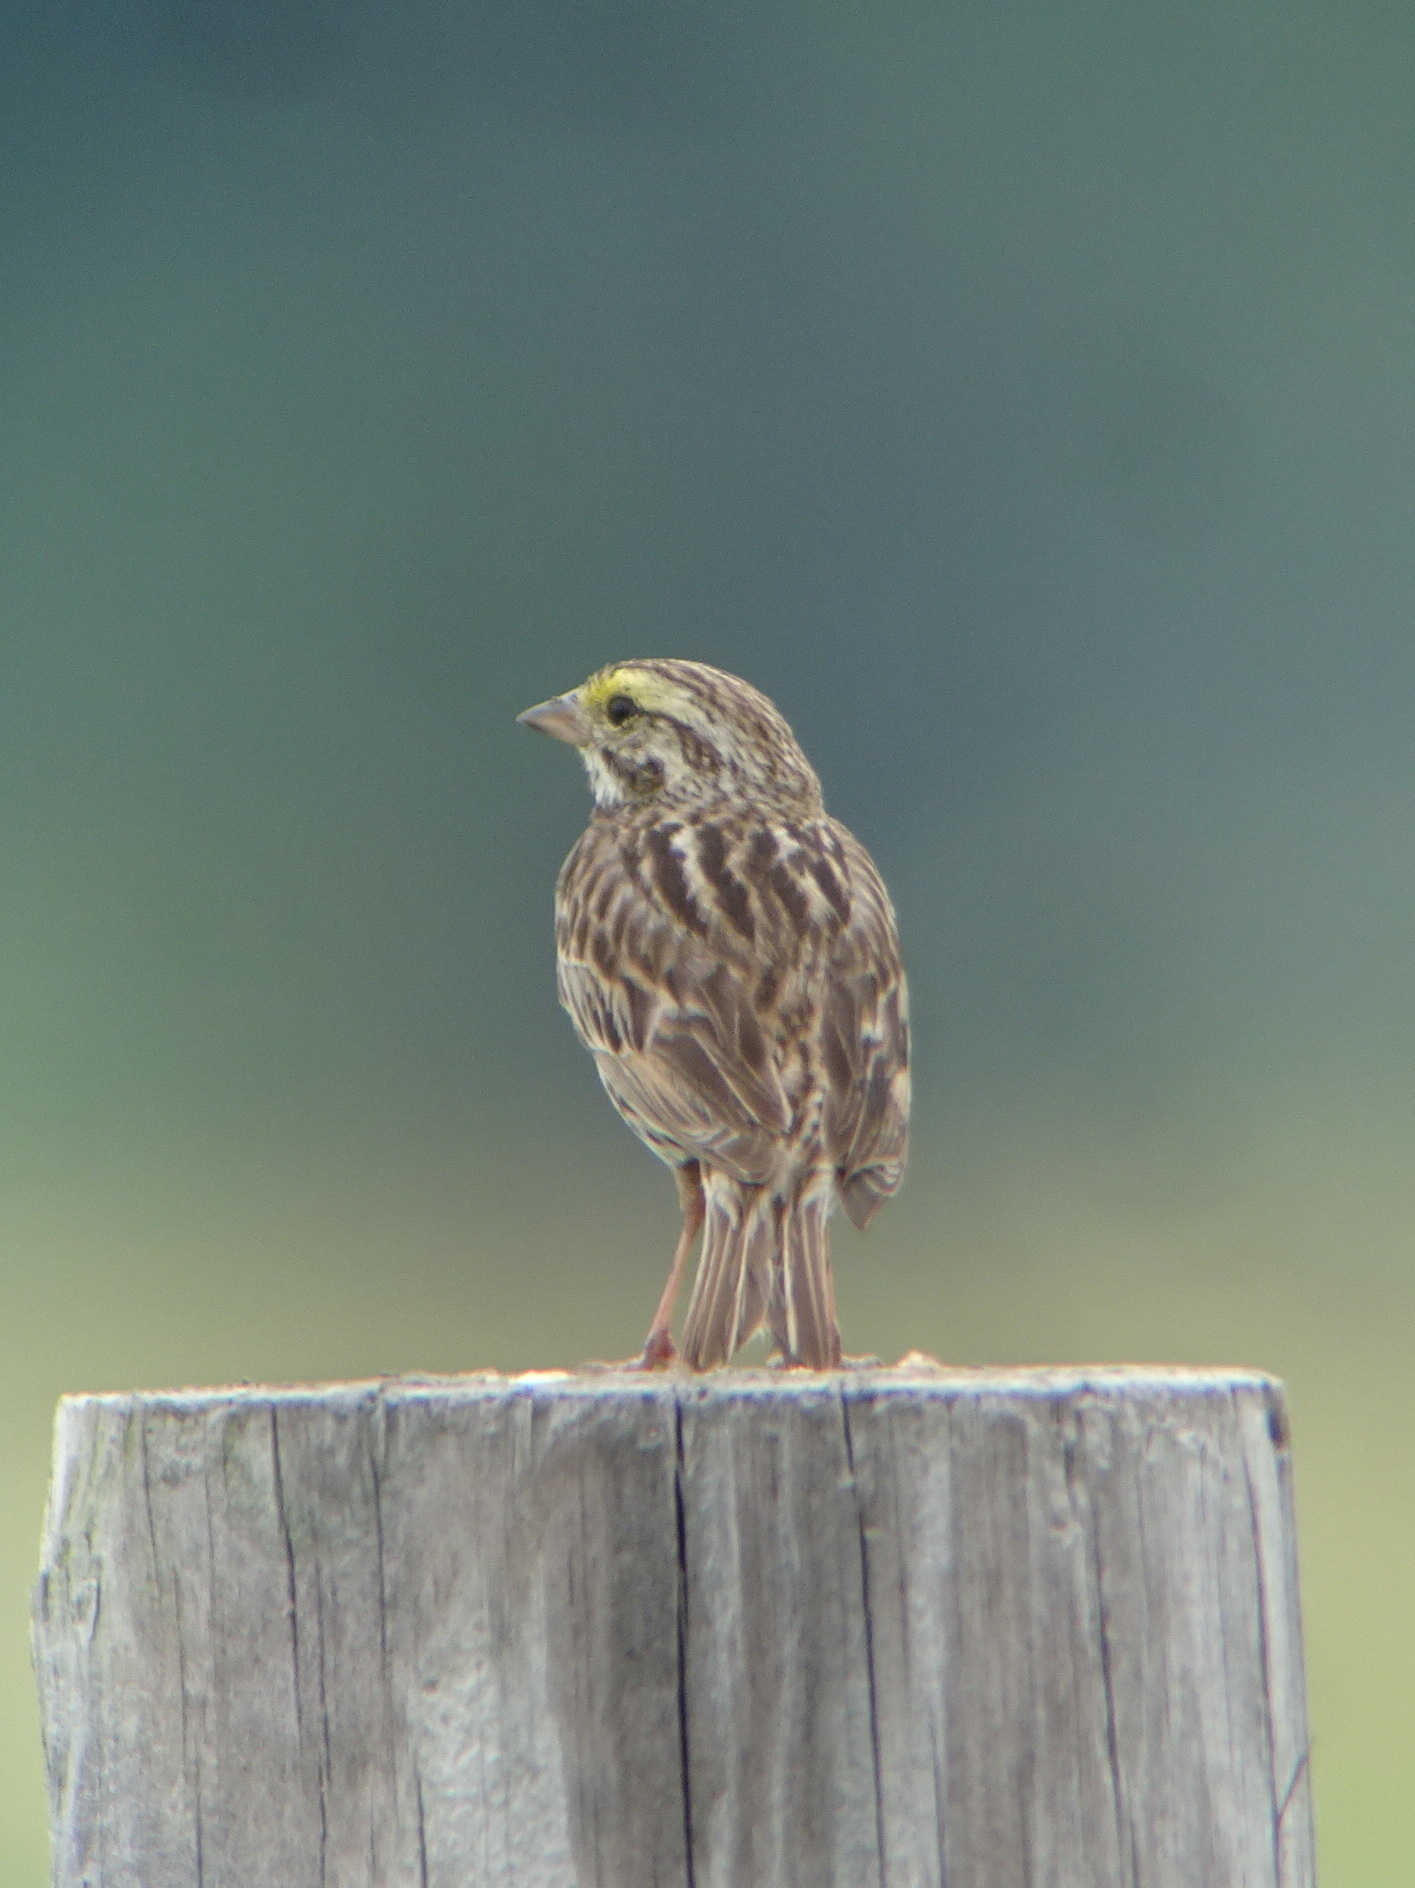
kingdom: Animalia
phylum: Chordata
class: Aves
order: Passeriformes
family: Passerellidae
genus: Passerculus
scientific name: Passerculus sandwichensis
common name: Savannah sparrow
